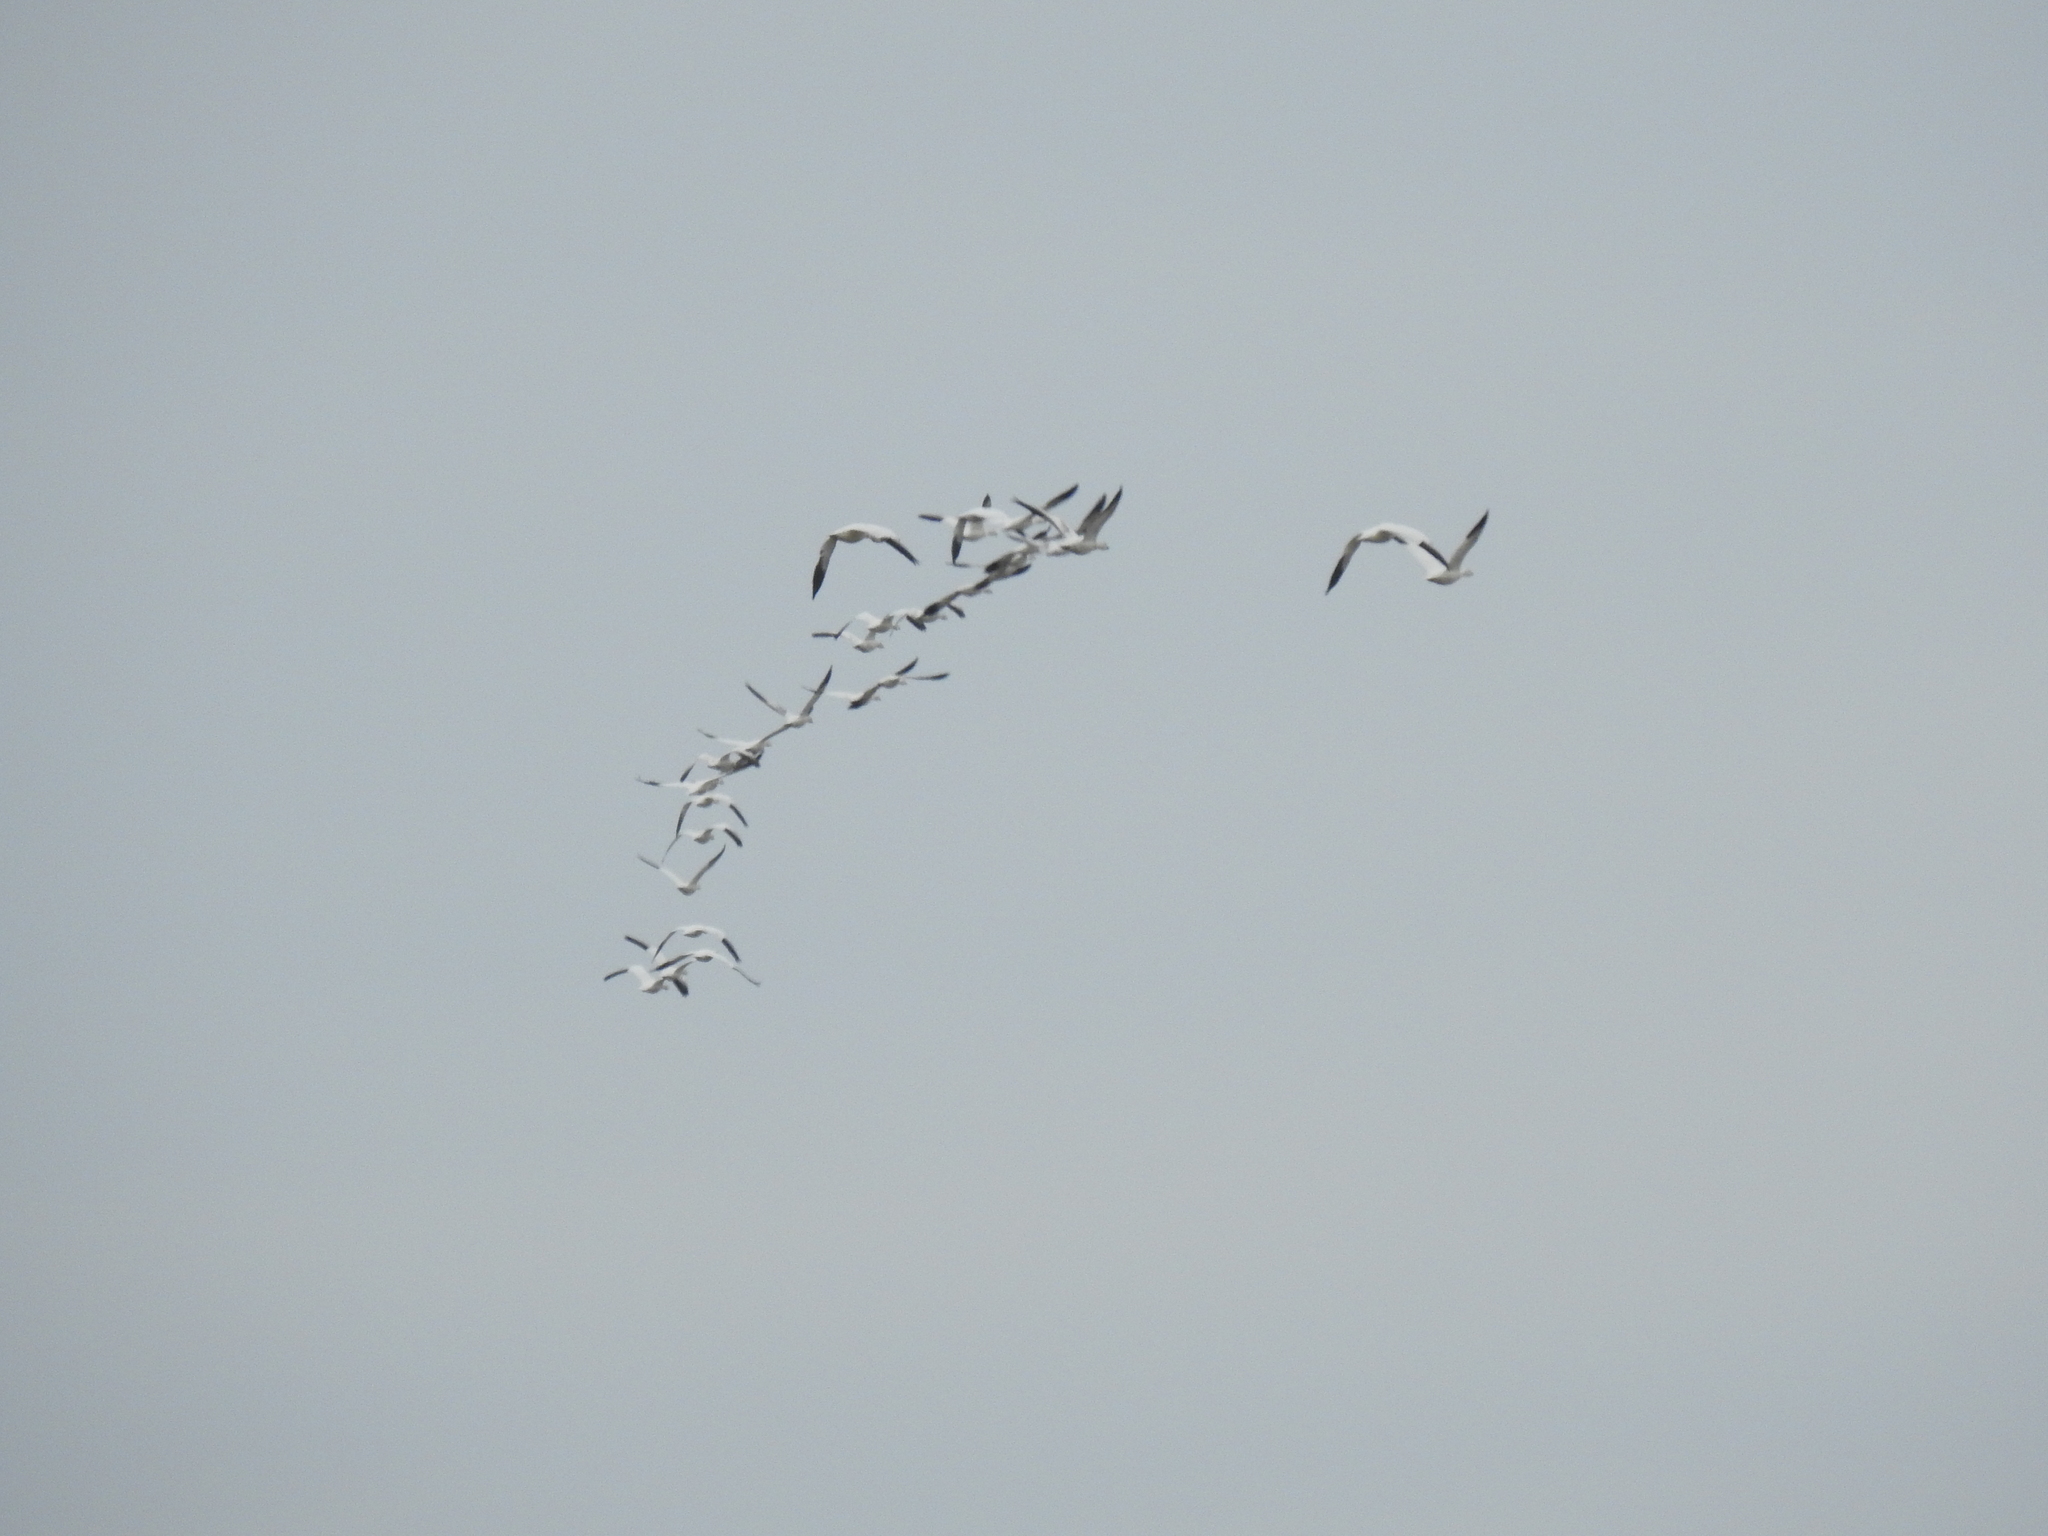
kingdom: Animalia
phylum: Chordata
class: Aves
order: Anseriformes
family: Anatidae
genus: Anser
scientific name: Anser caerulescens
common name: Snow goose
